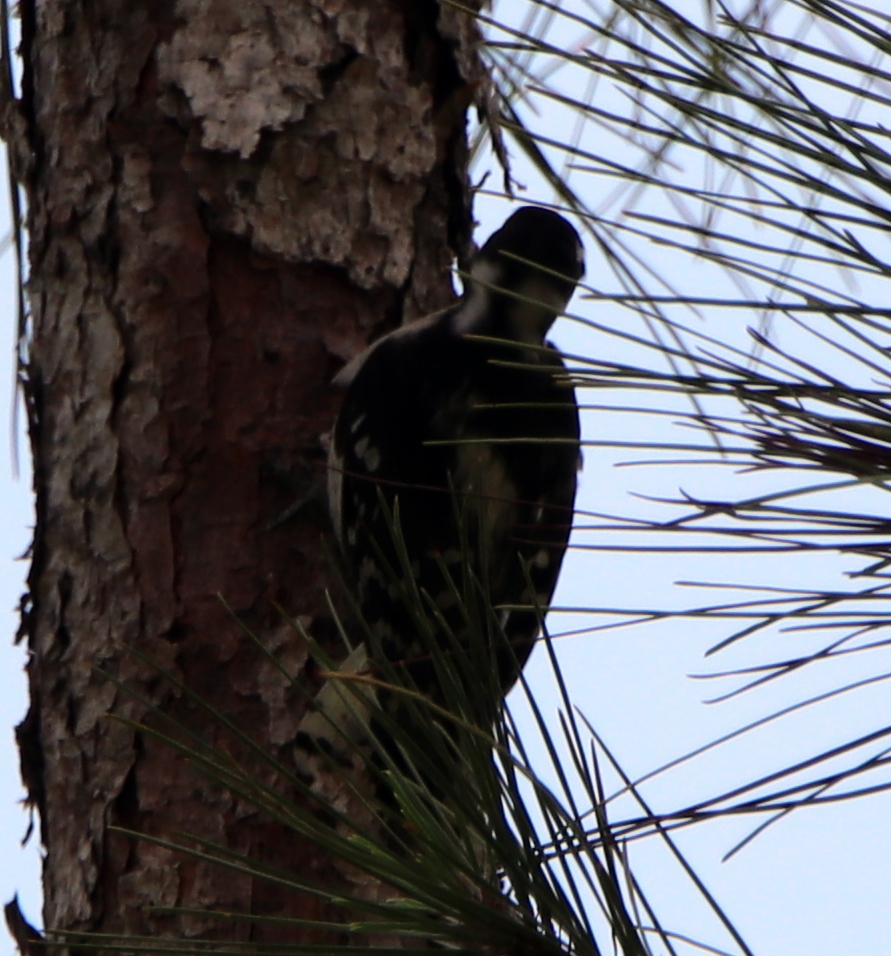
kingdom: Animalia
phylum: Chordata
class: Aves
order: Piciformes
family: Picidae
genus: Dryobates
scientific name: Dryobates pubescens
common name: Downy woodpecker
